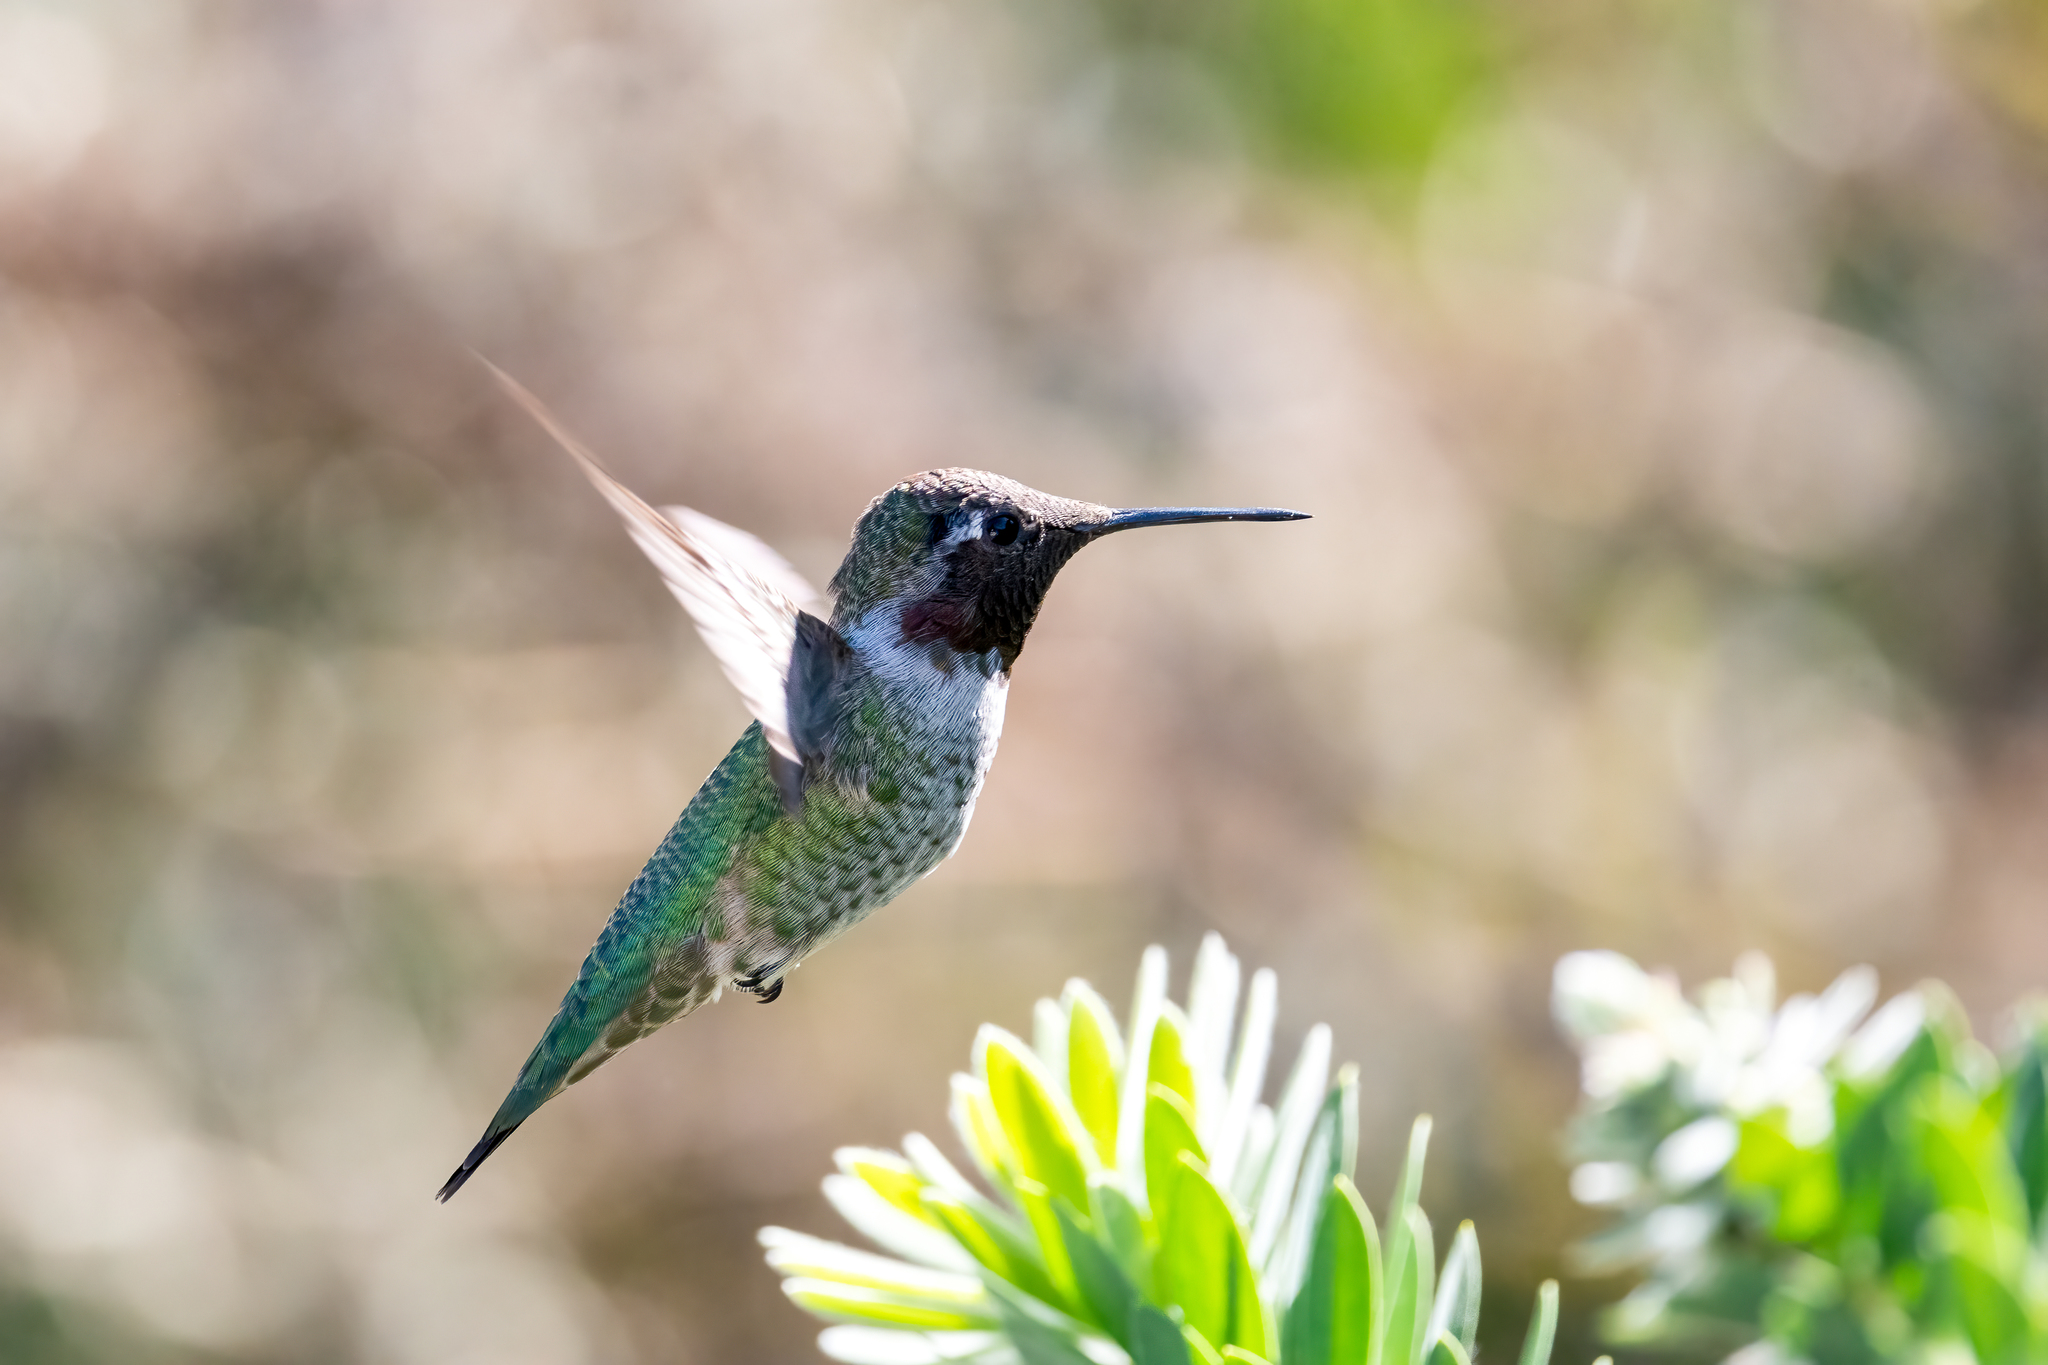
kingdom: Animalia
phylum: Chordata
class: Aves
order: Apodiformes
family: Trochilidae
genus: Calypte
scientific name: Calypte anna
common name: Anna's hummingbird
